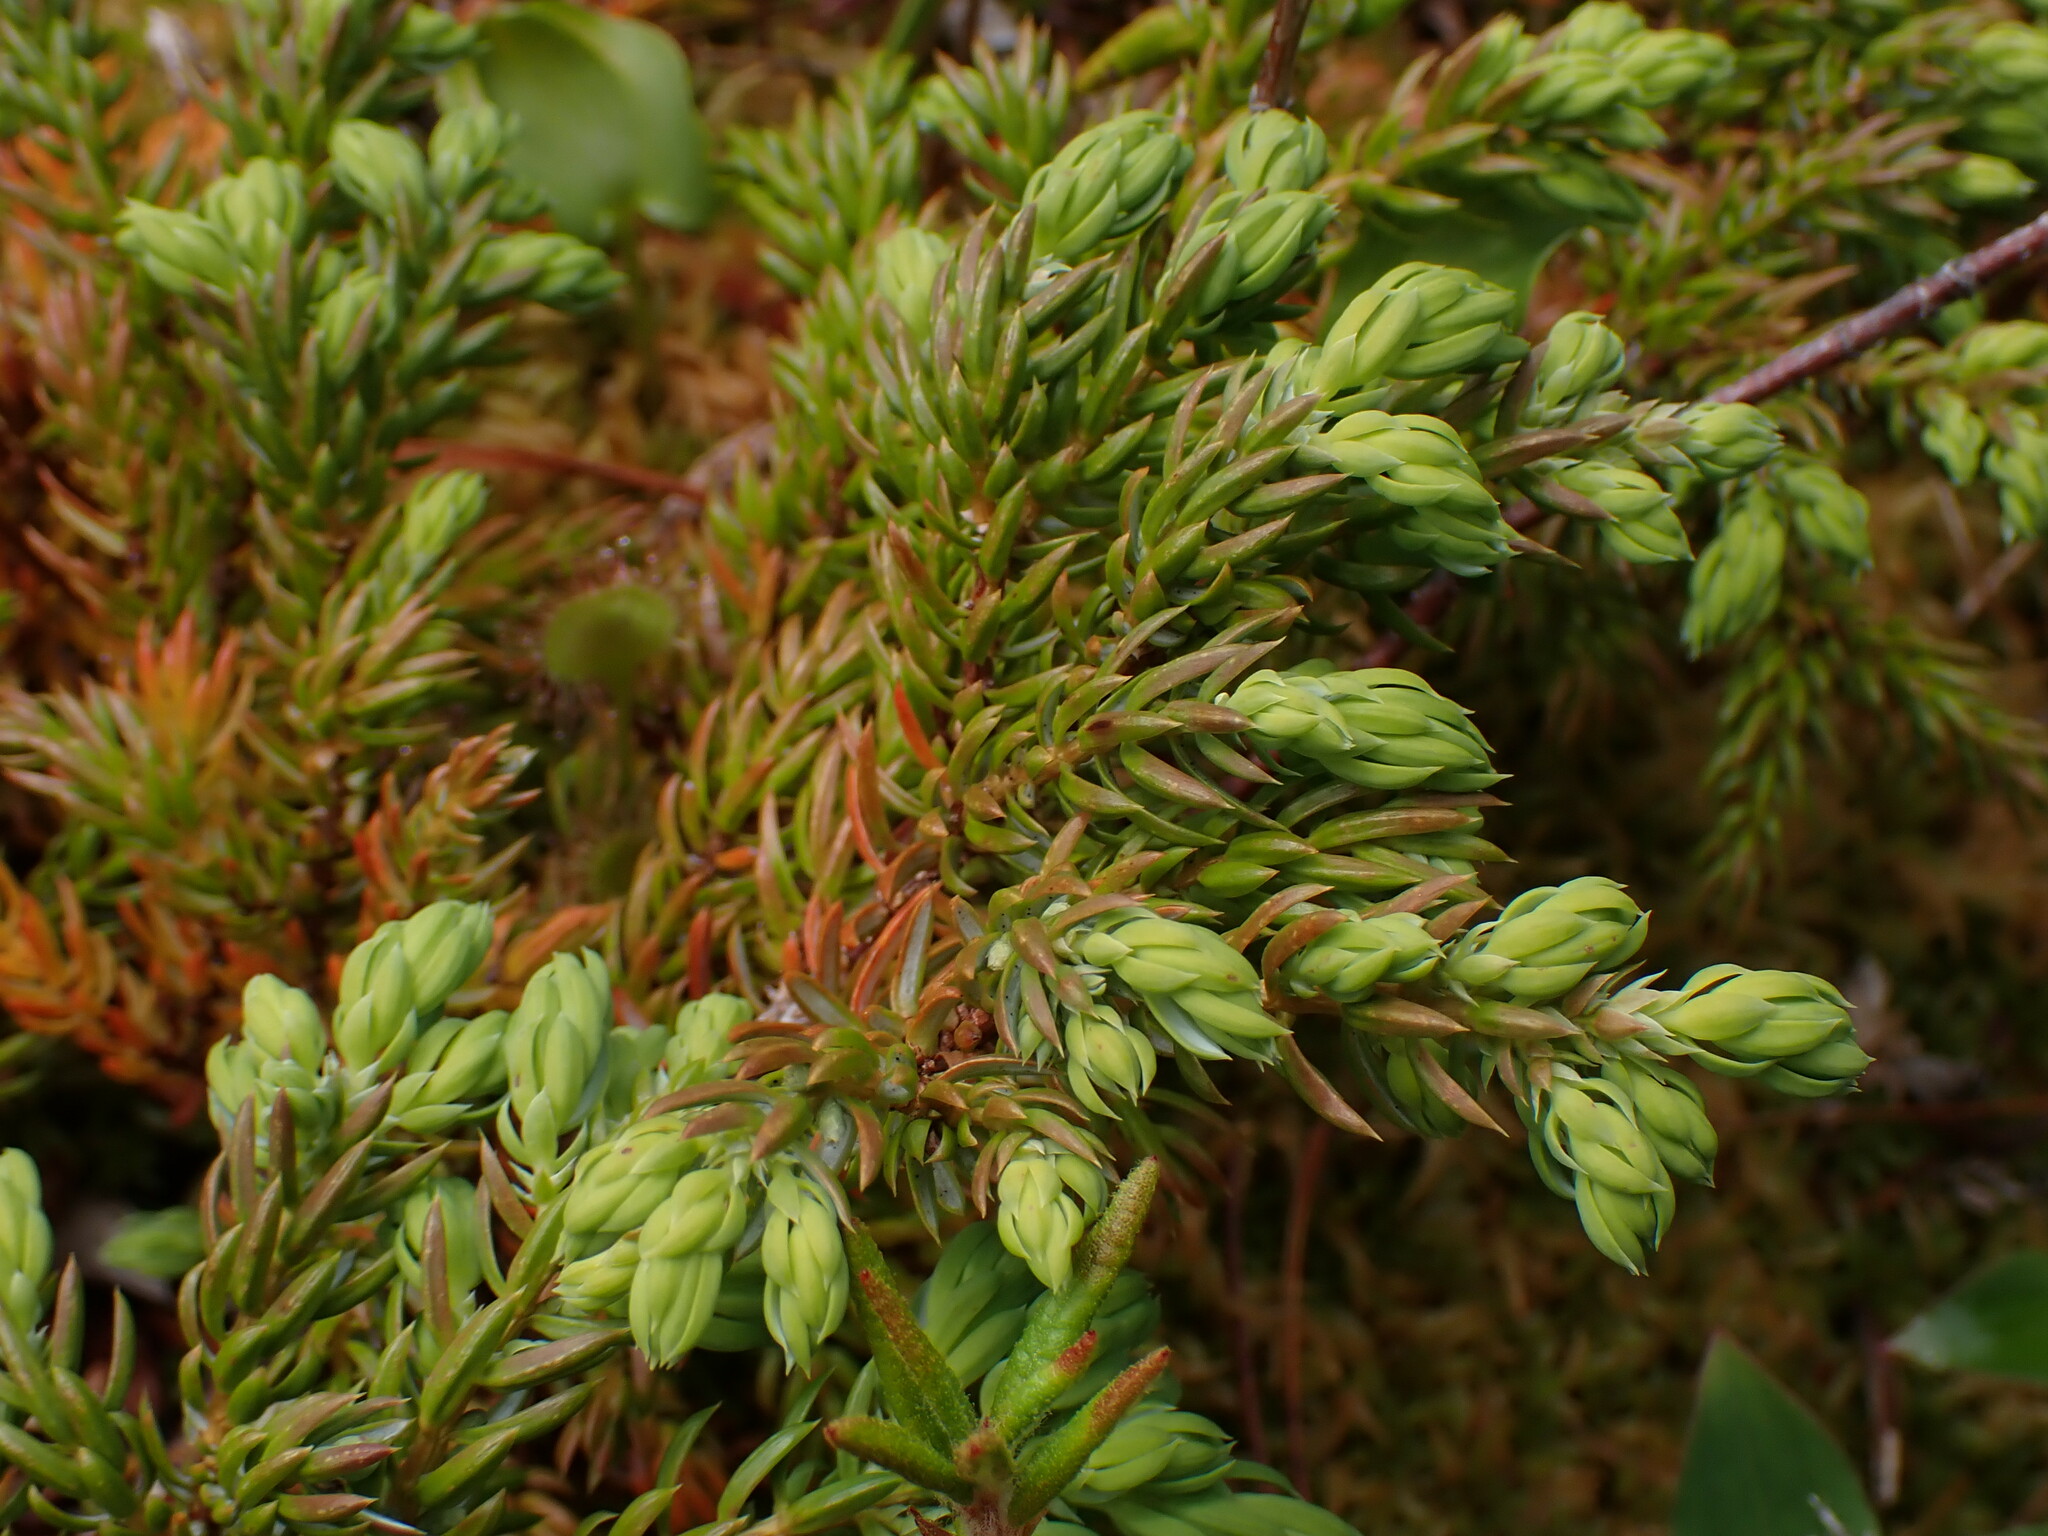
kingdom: Plantae
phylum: Tracheophyta
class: Pinopsida
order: Pinales
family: Cupressaceae
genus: Juniperus
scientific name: Juniperus communis
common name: Common juniper
